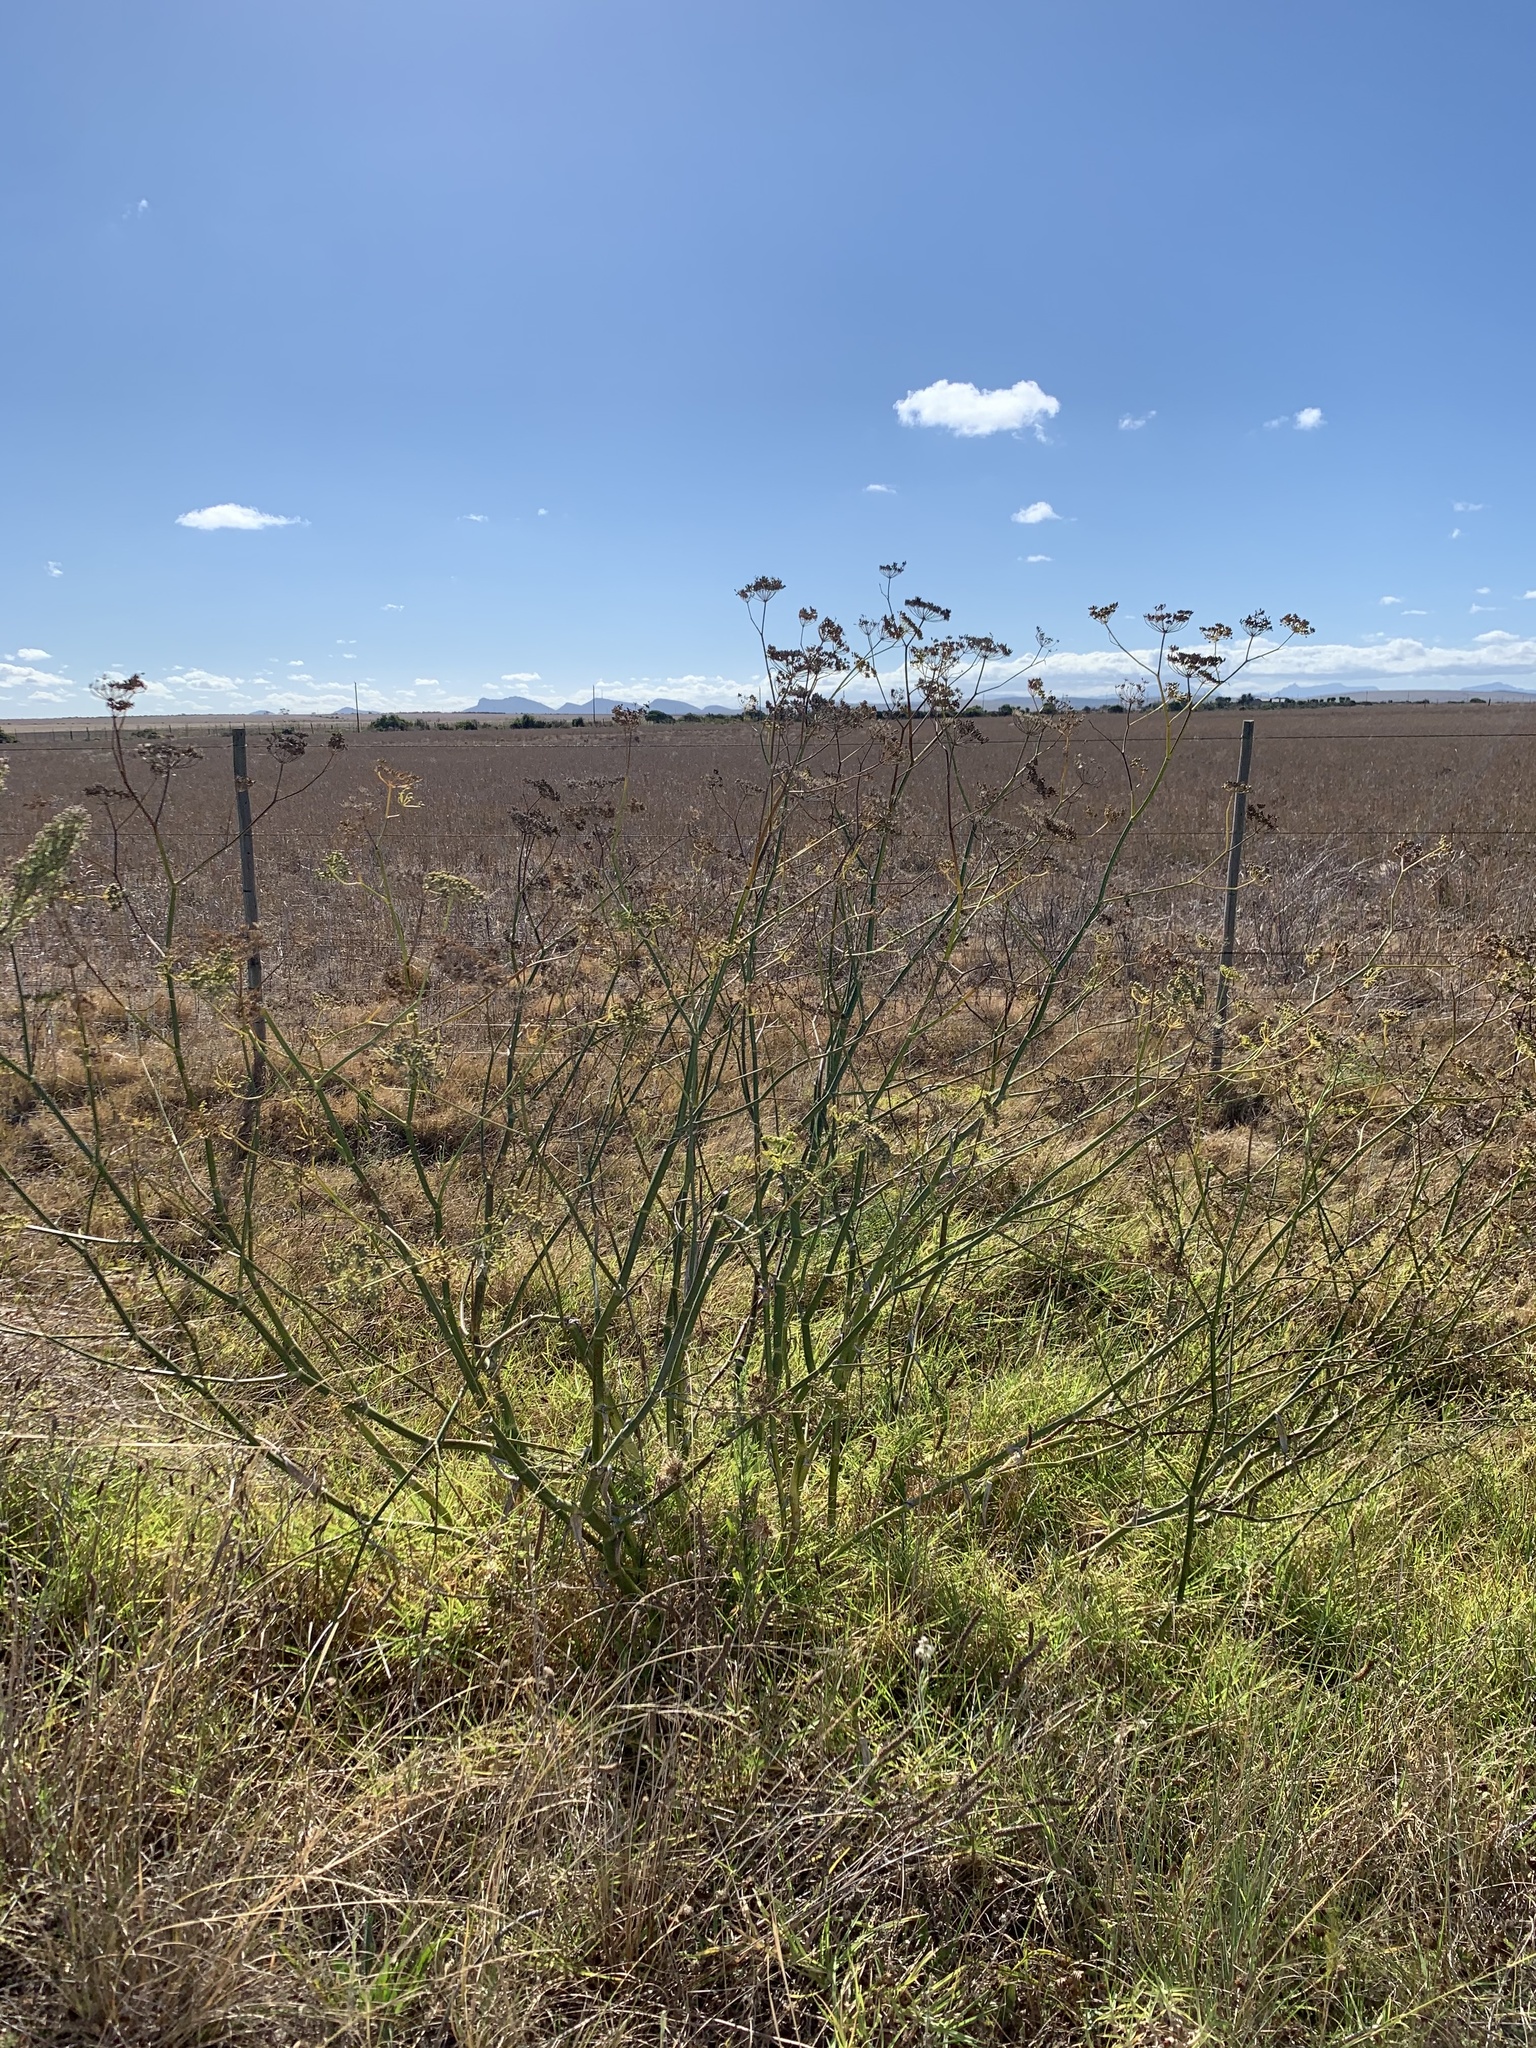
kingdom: Plantae
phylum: Tracheophyta
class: Magnoliopsida
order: Apiales
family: Apiaceae
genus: Foeniculum
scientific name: Foeniculum vulgare
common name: Fennel
